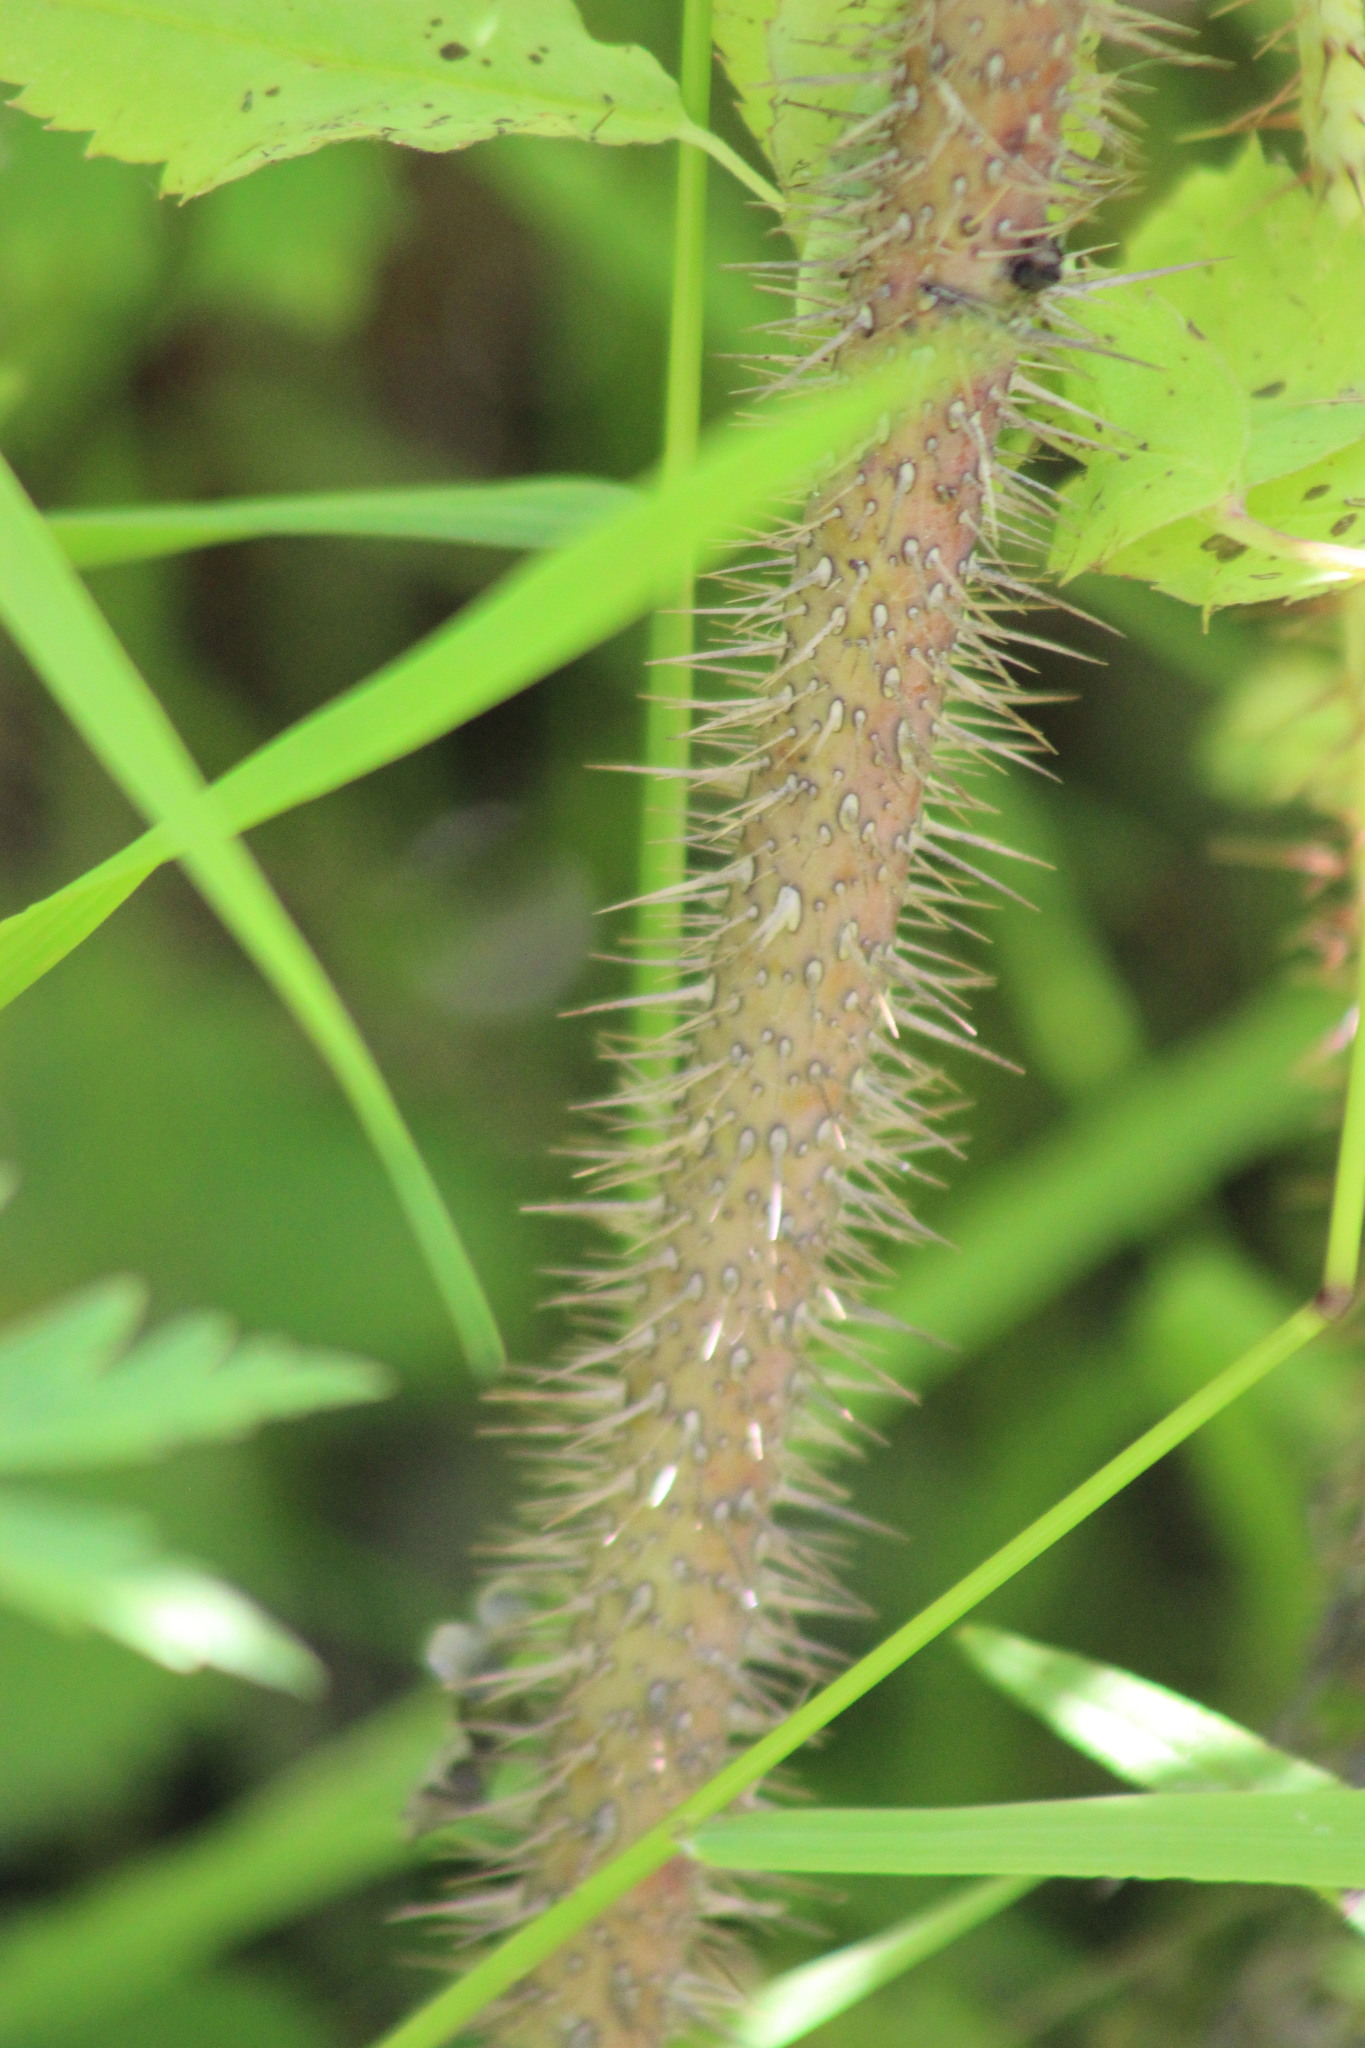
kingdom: Plantae
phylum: Tracheophyta
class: Magnoliopsida
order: Rosales
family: Rosaceae
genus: Rosa
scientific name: Rosa acicularis
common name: Prickly rose
